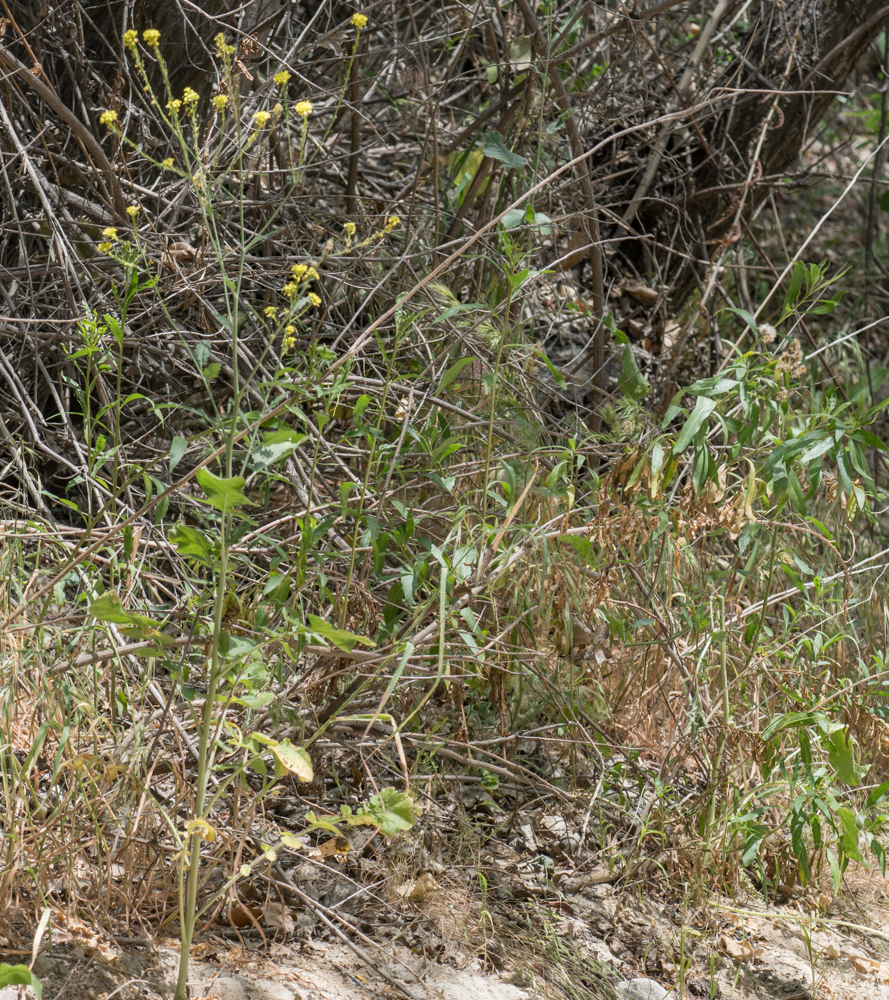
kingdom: Plantae
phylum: Tracheophyta
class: Magnoliopsida
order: Brassicales
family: Brassicaceae
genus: Brassica
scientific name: Brassica nigra
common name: Black mustard
